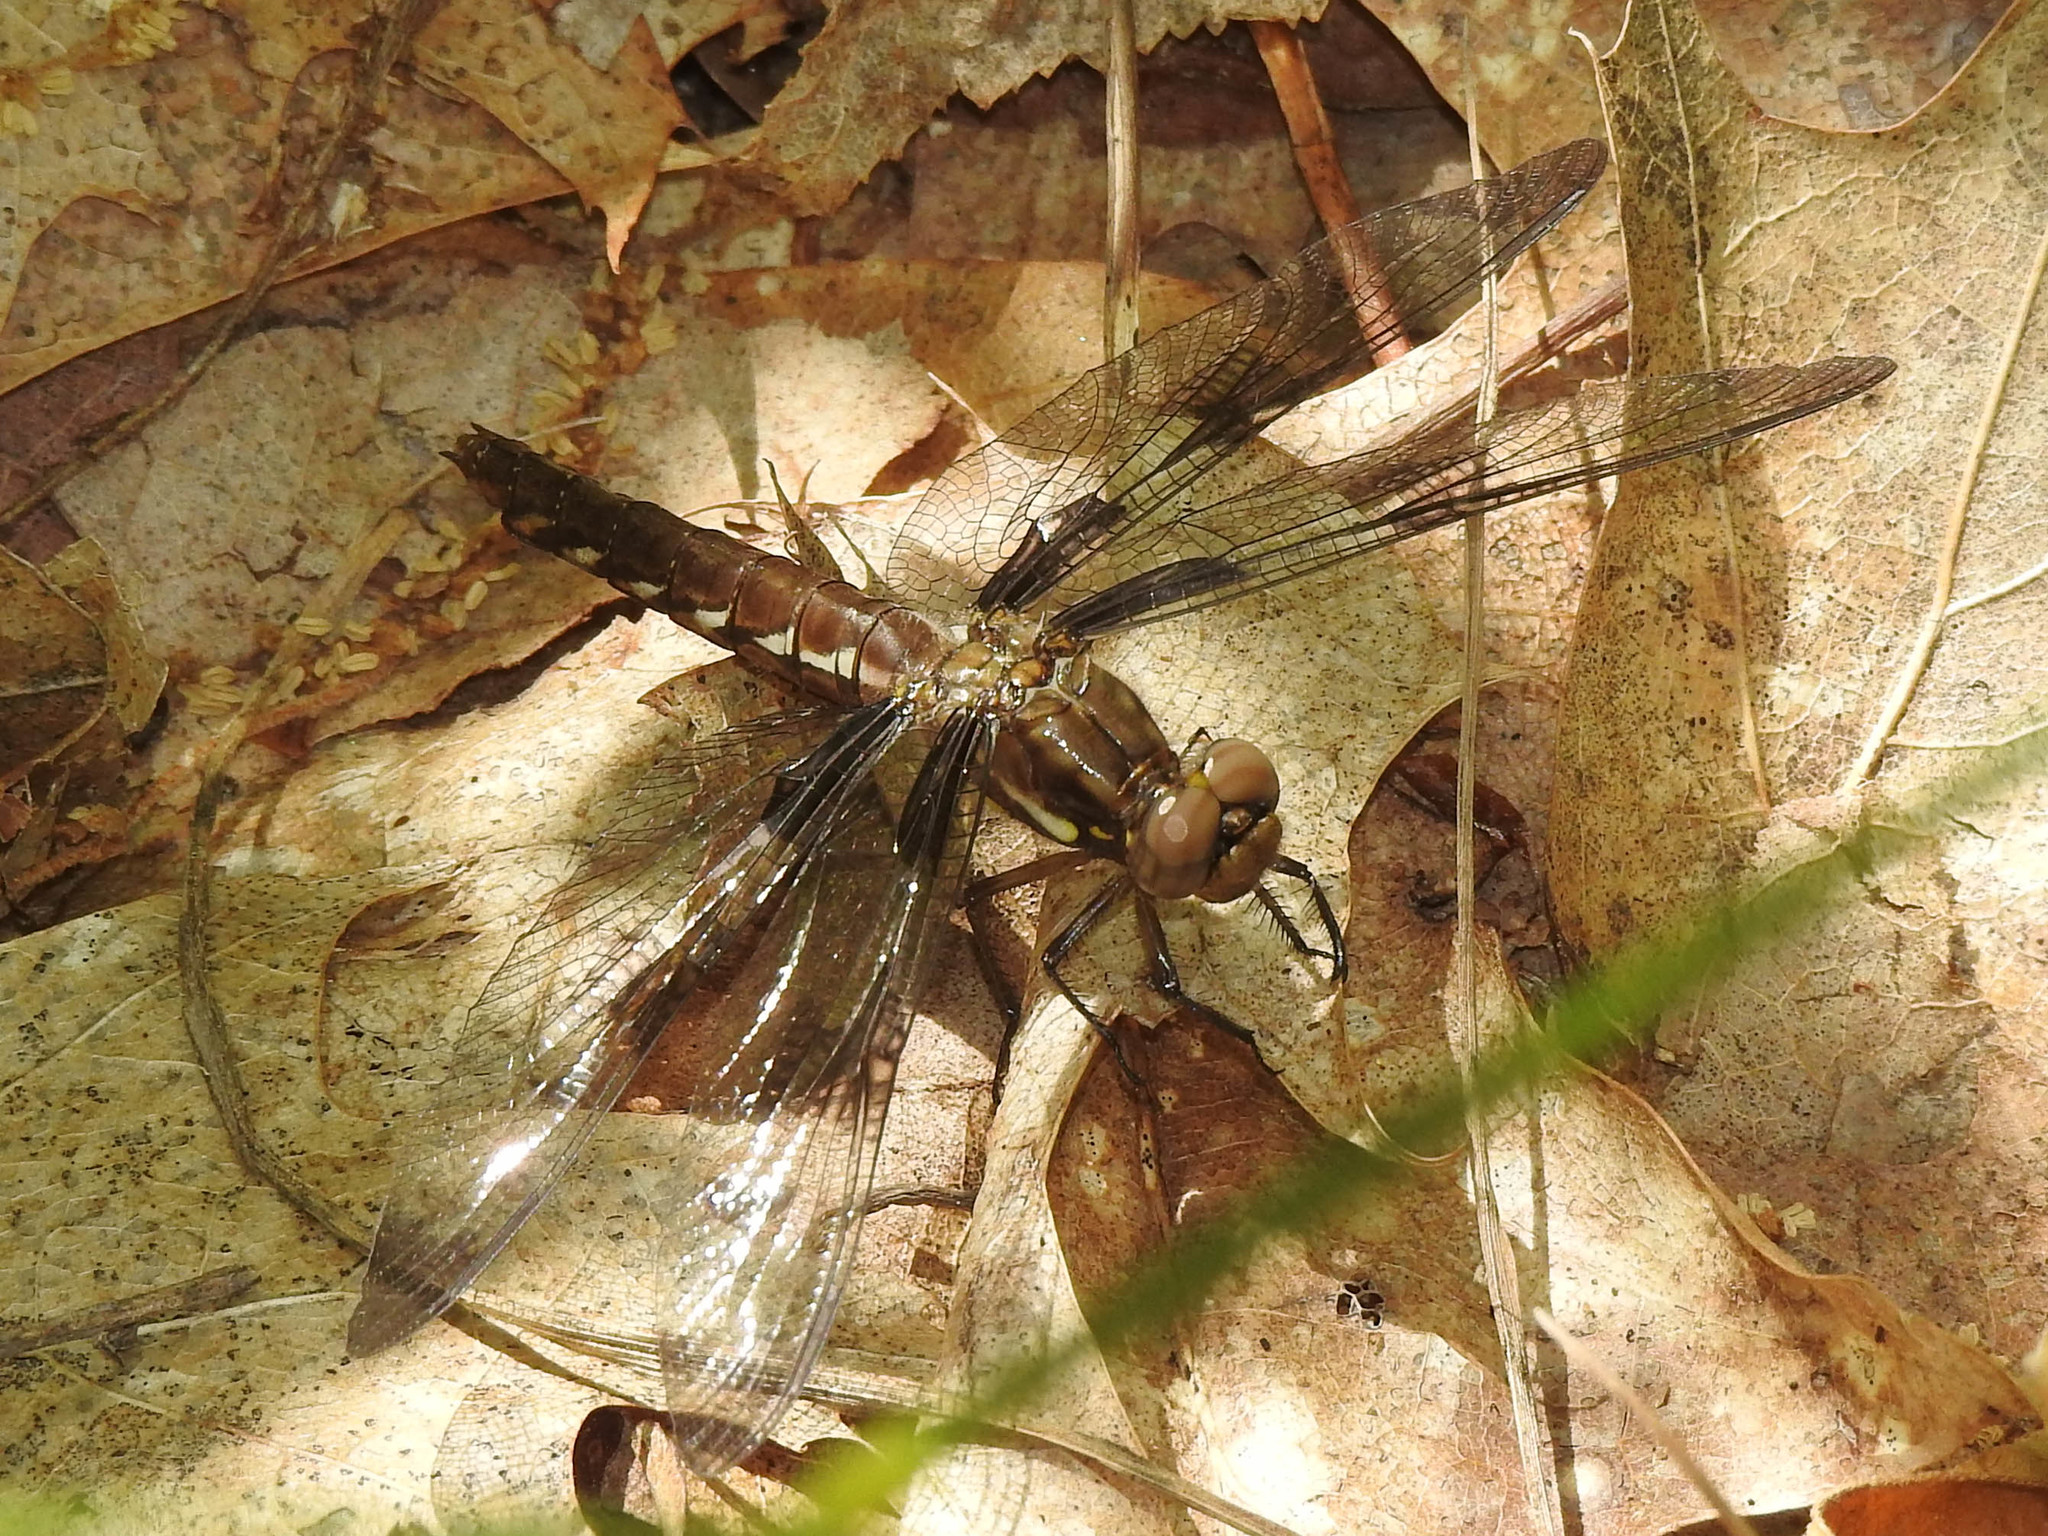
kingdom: Animalia
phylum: Arthropoda
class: Insecta
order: Odonata
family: Libellulidae
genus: Plathemis
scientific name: Plathemis lydia
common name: Common whitetail
